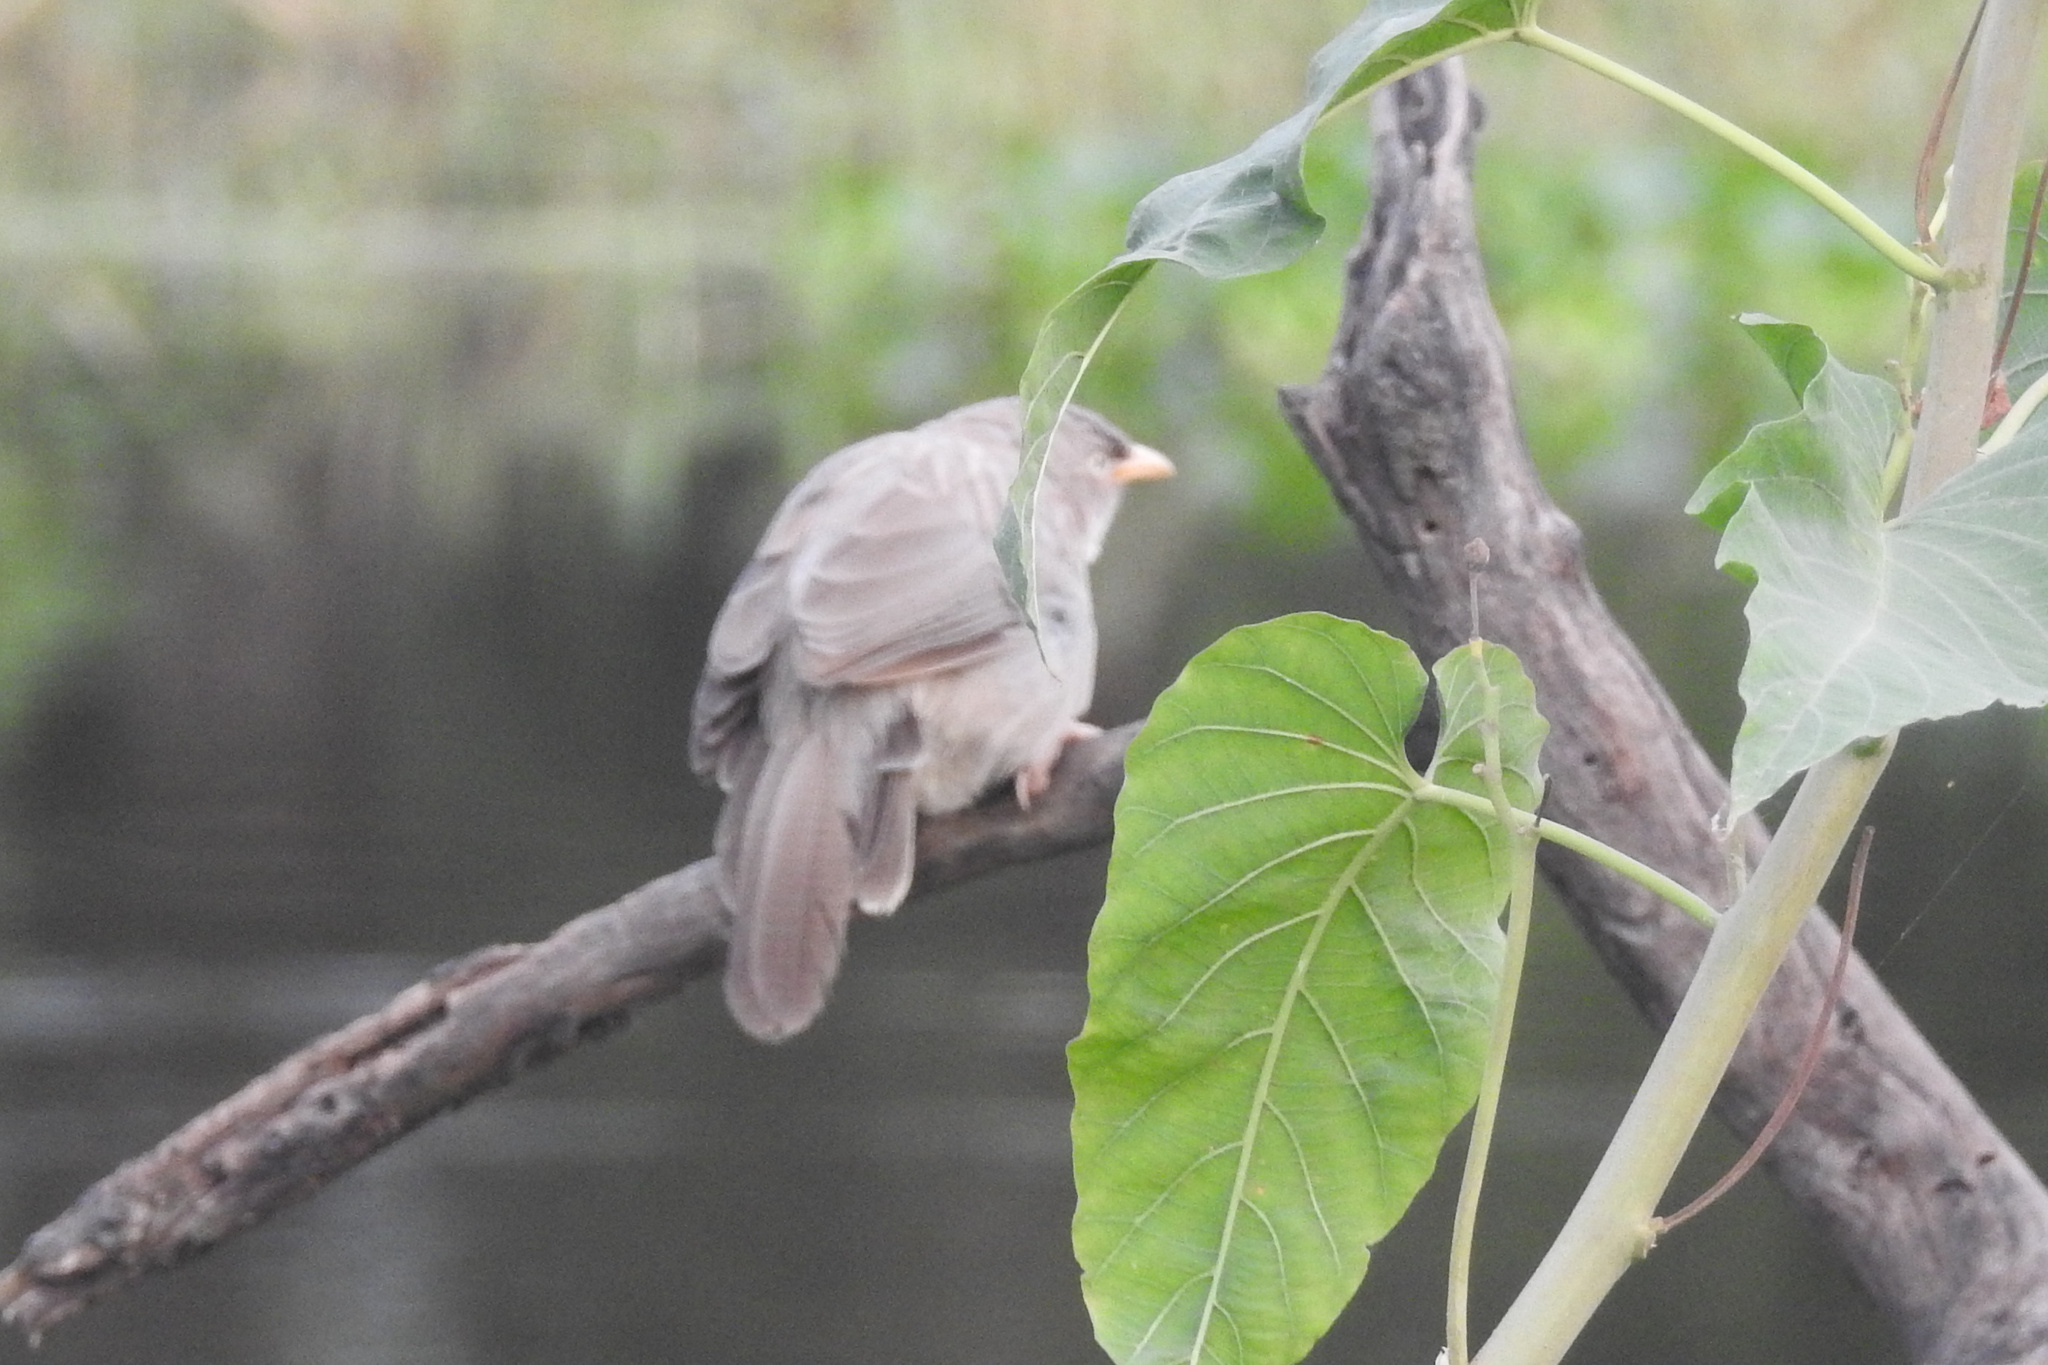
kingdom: Animalia
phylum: Chordata
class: Aves
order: Passeriformes
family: Leiothrichidae
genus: Turdoides
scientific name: Turdoides striata
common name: Jungle babbler
